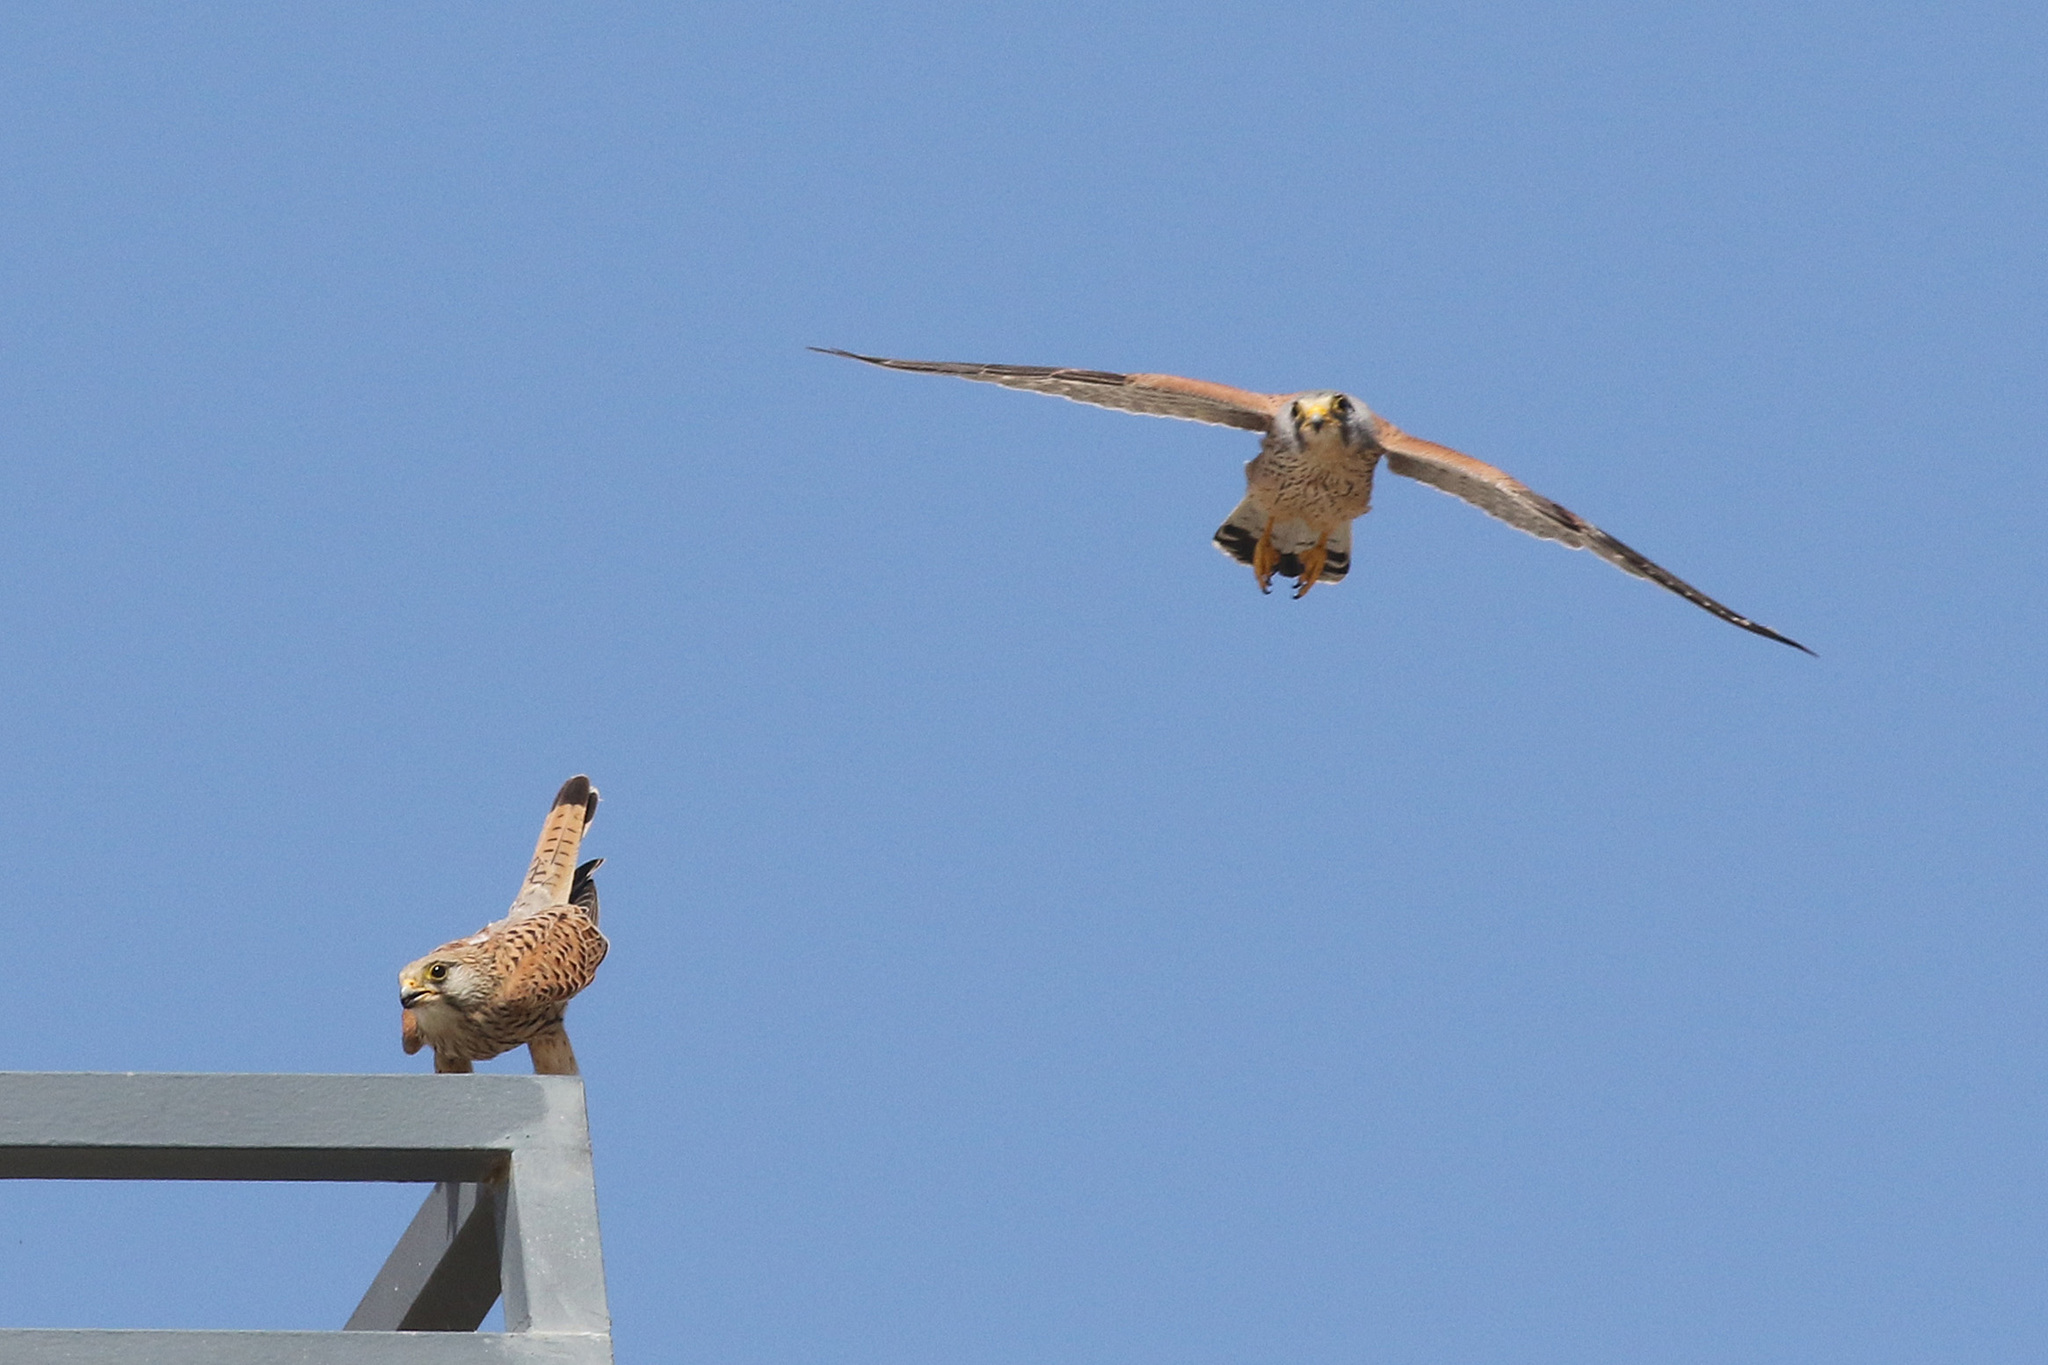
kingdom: Animalia
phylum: Chordata
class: Aves
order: Falconiformes
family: Falconidae
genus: Falco
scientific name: Falco tinnunculus
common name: Common kestrel
